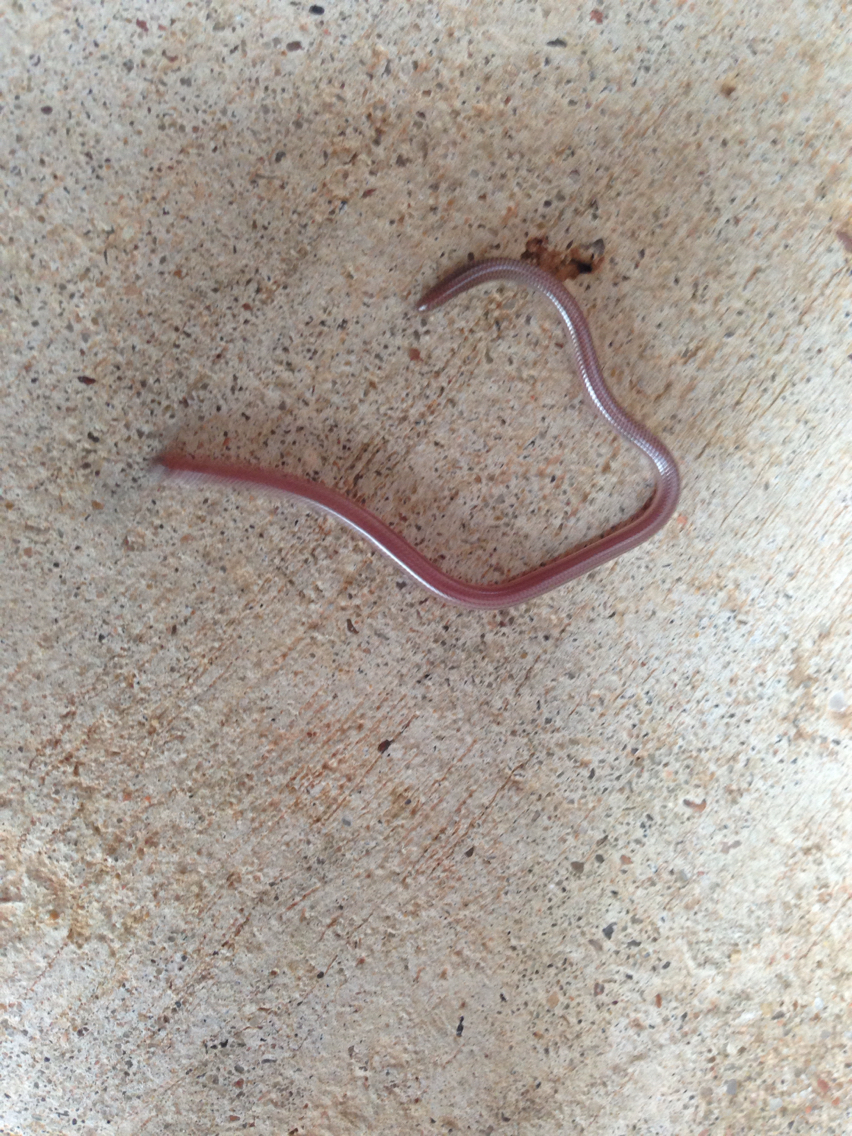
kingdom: Animalia
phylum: Chordata
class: Squamata
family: Leptotyphlopidae
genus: Rena
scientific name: Rena dulcis
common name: Texas blind snake
